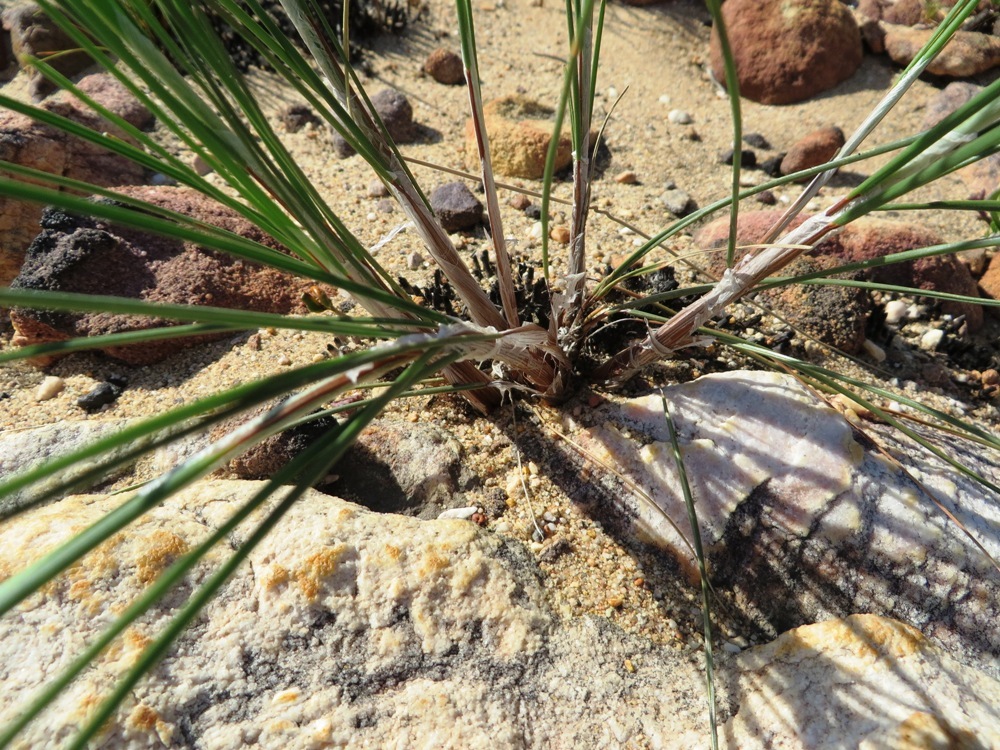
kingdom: Plantae
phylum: Tracheophyta
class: Liliopsida
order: Poales
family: Cyperaceae
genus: Ficinia
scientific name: Ficinia ecklonea
